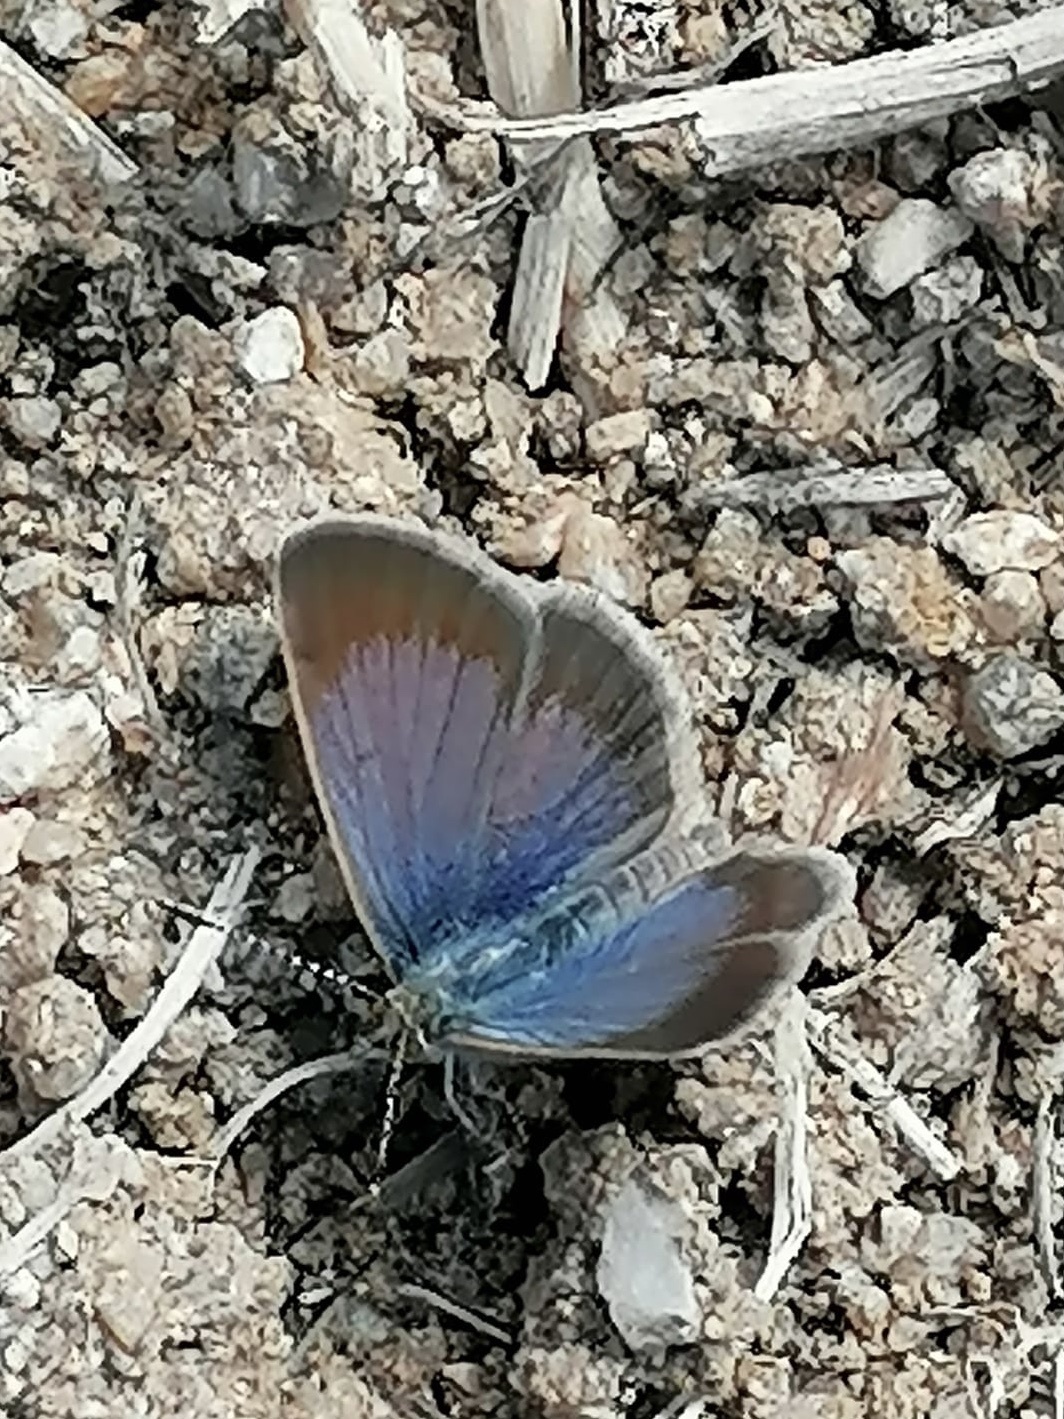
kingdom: Animalia
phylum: Arthropoda
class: Insecta
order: Lepidoptera
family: Lycaenidae
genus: Zizeeria
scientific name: Zizeeria knysna
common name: African grass blue
